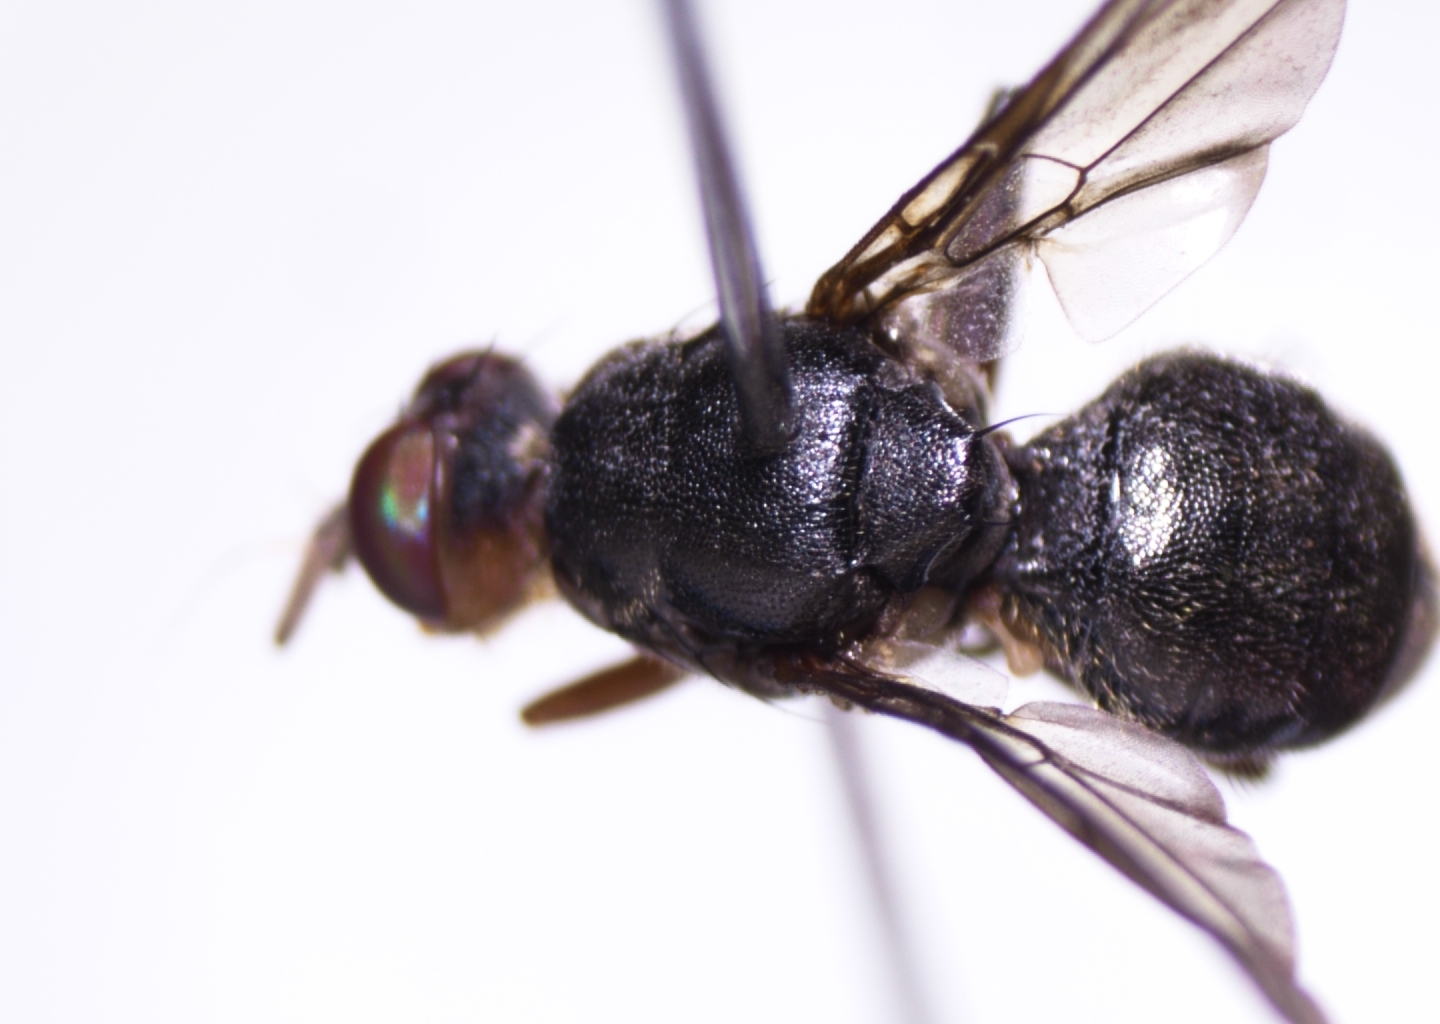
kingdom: Animalia
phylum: Arthropoda
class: Insecta
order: Diptera
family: Tephritidae
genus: Bactrocera
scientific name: Bactrocera melanotus
